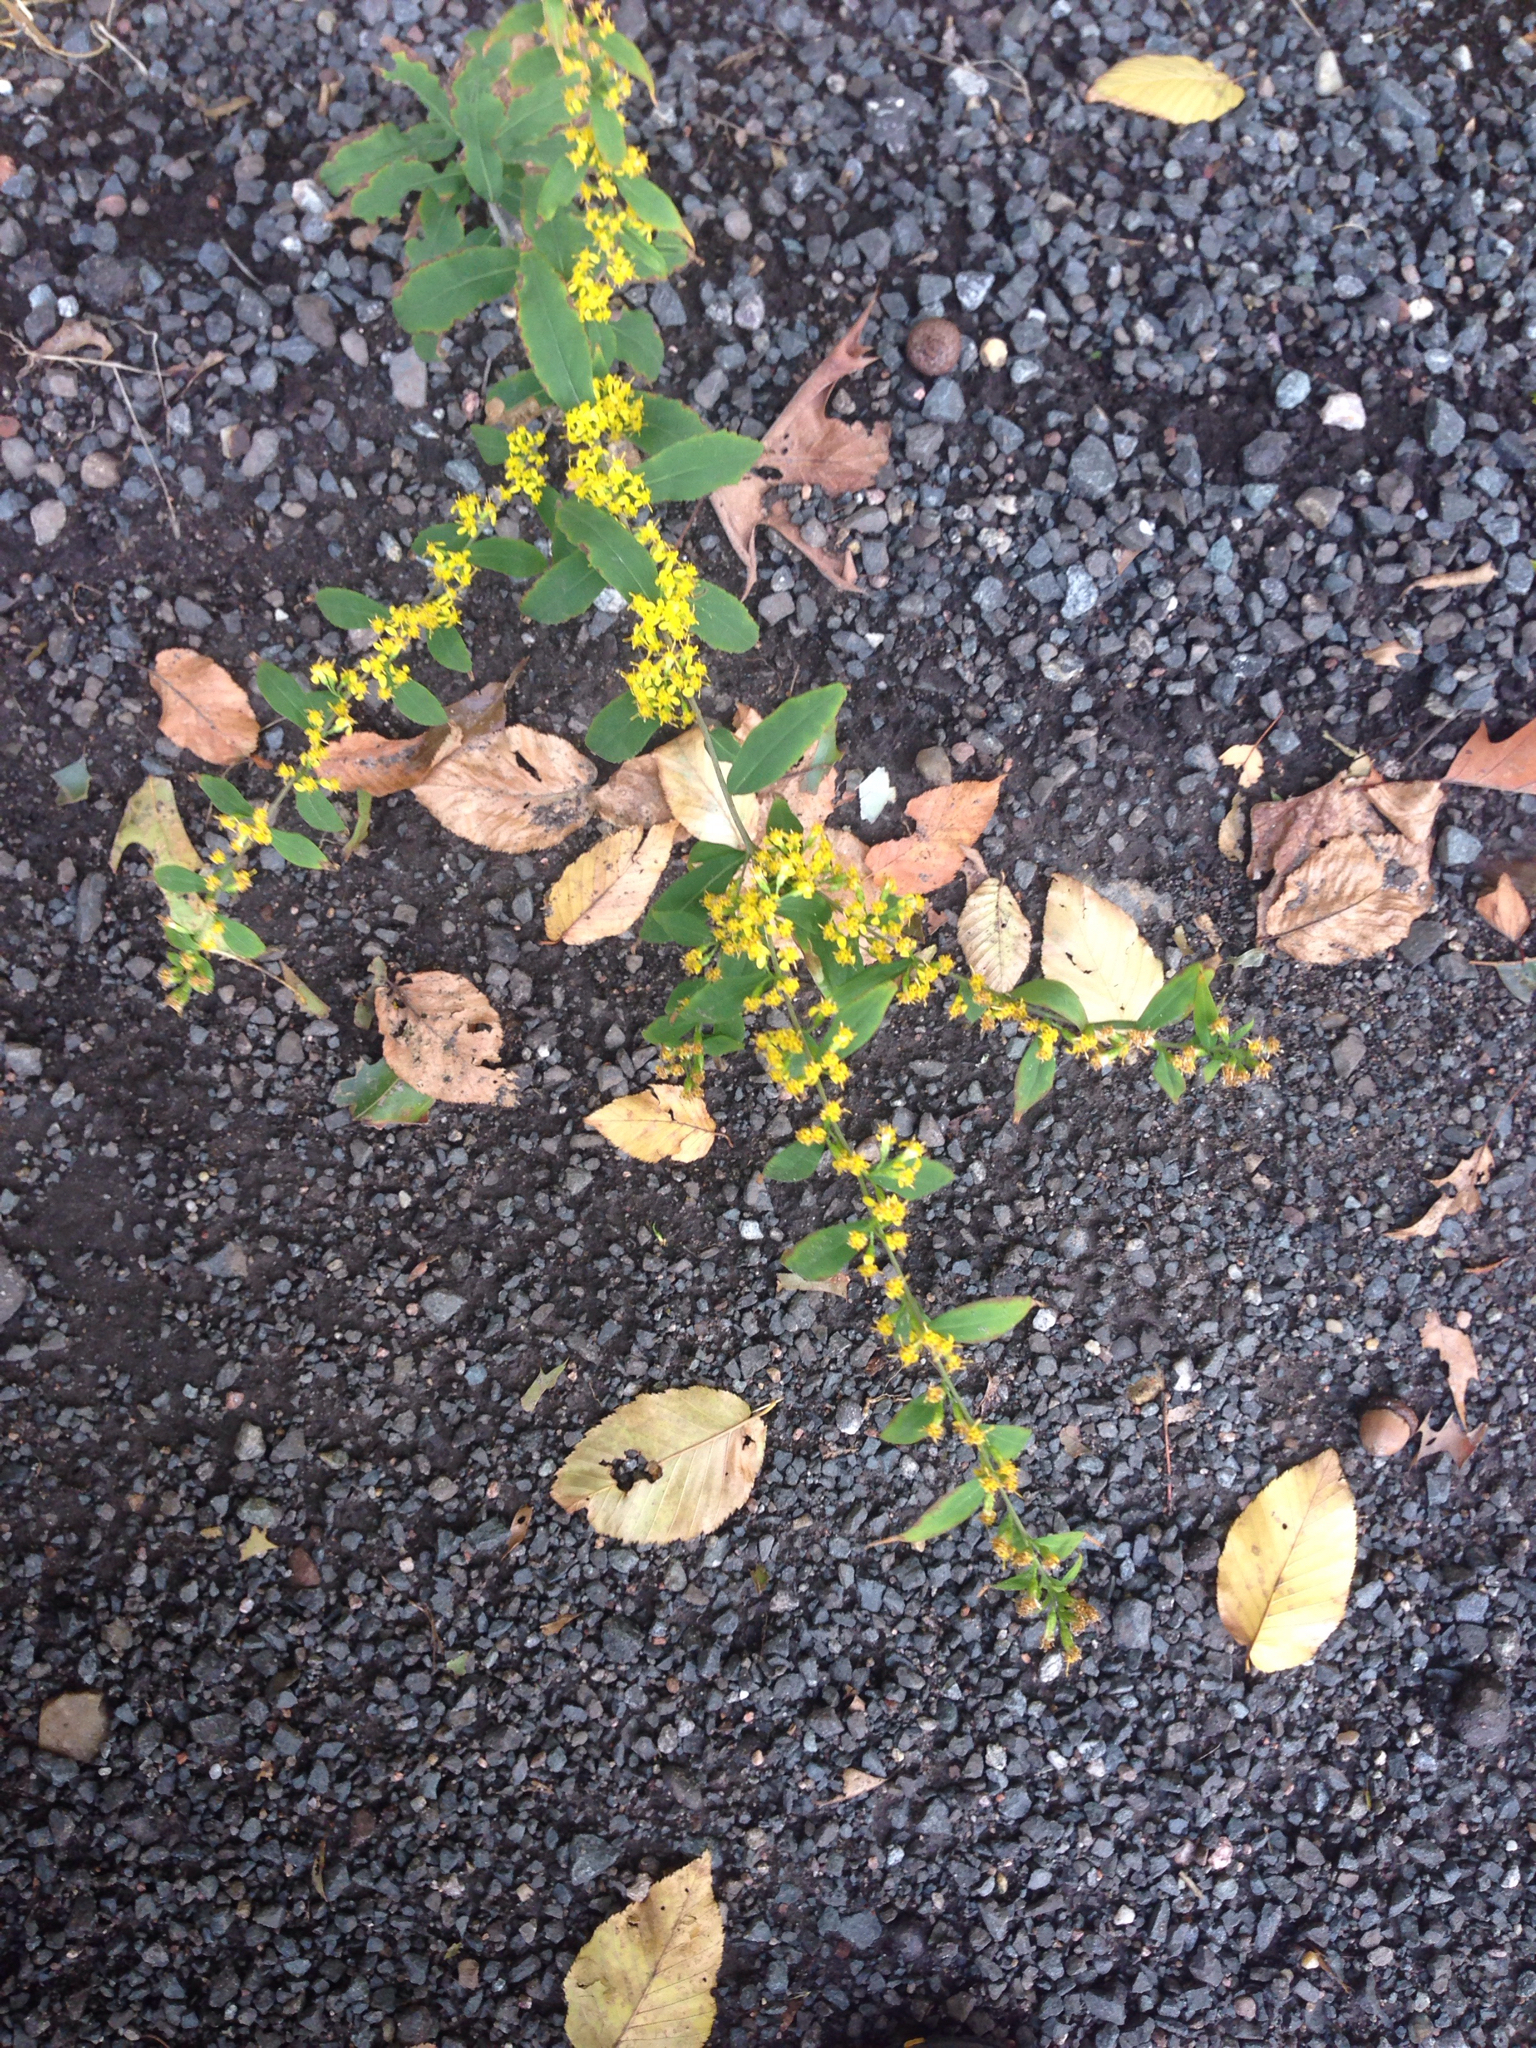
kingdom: Plantae
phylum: Tracheophyta
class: Magnoliopsida
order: Asterales
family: Asteraceae
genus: Solidago
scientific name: Solidago caesia
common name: Woodland goldenrod
